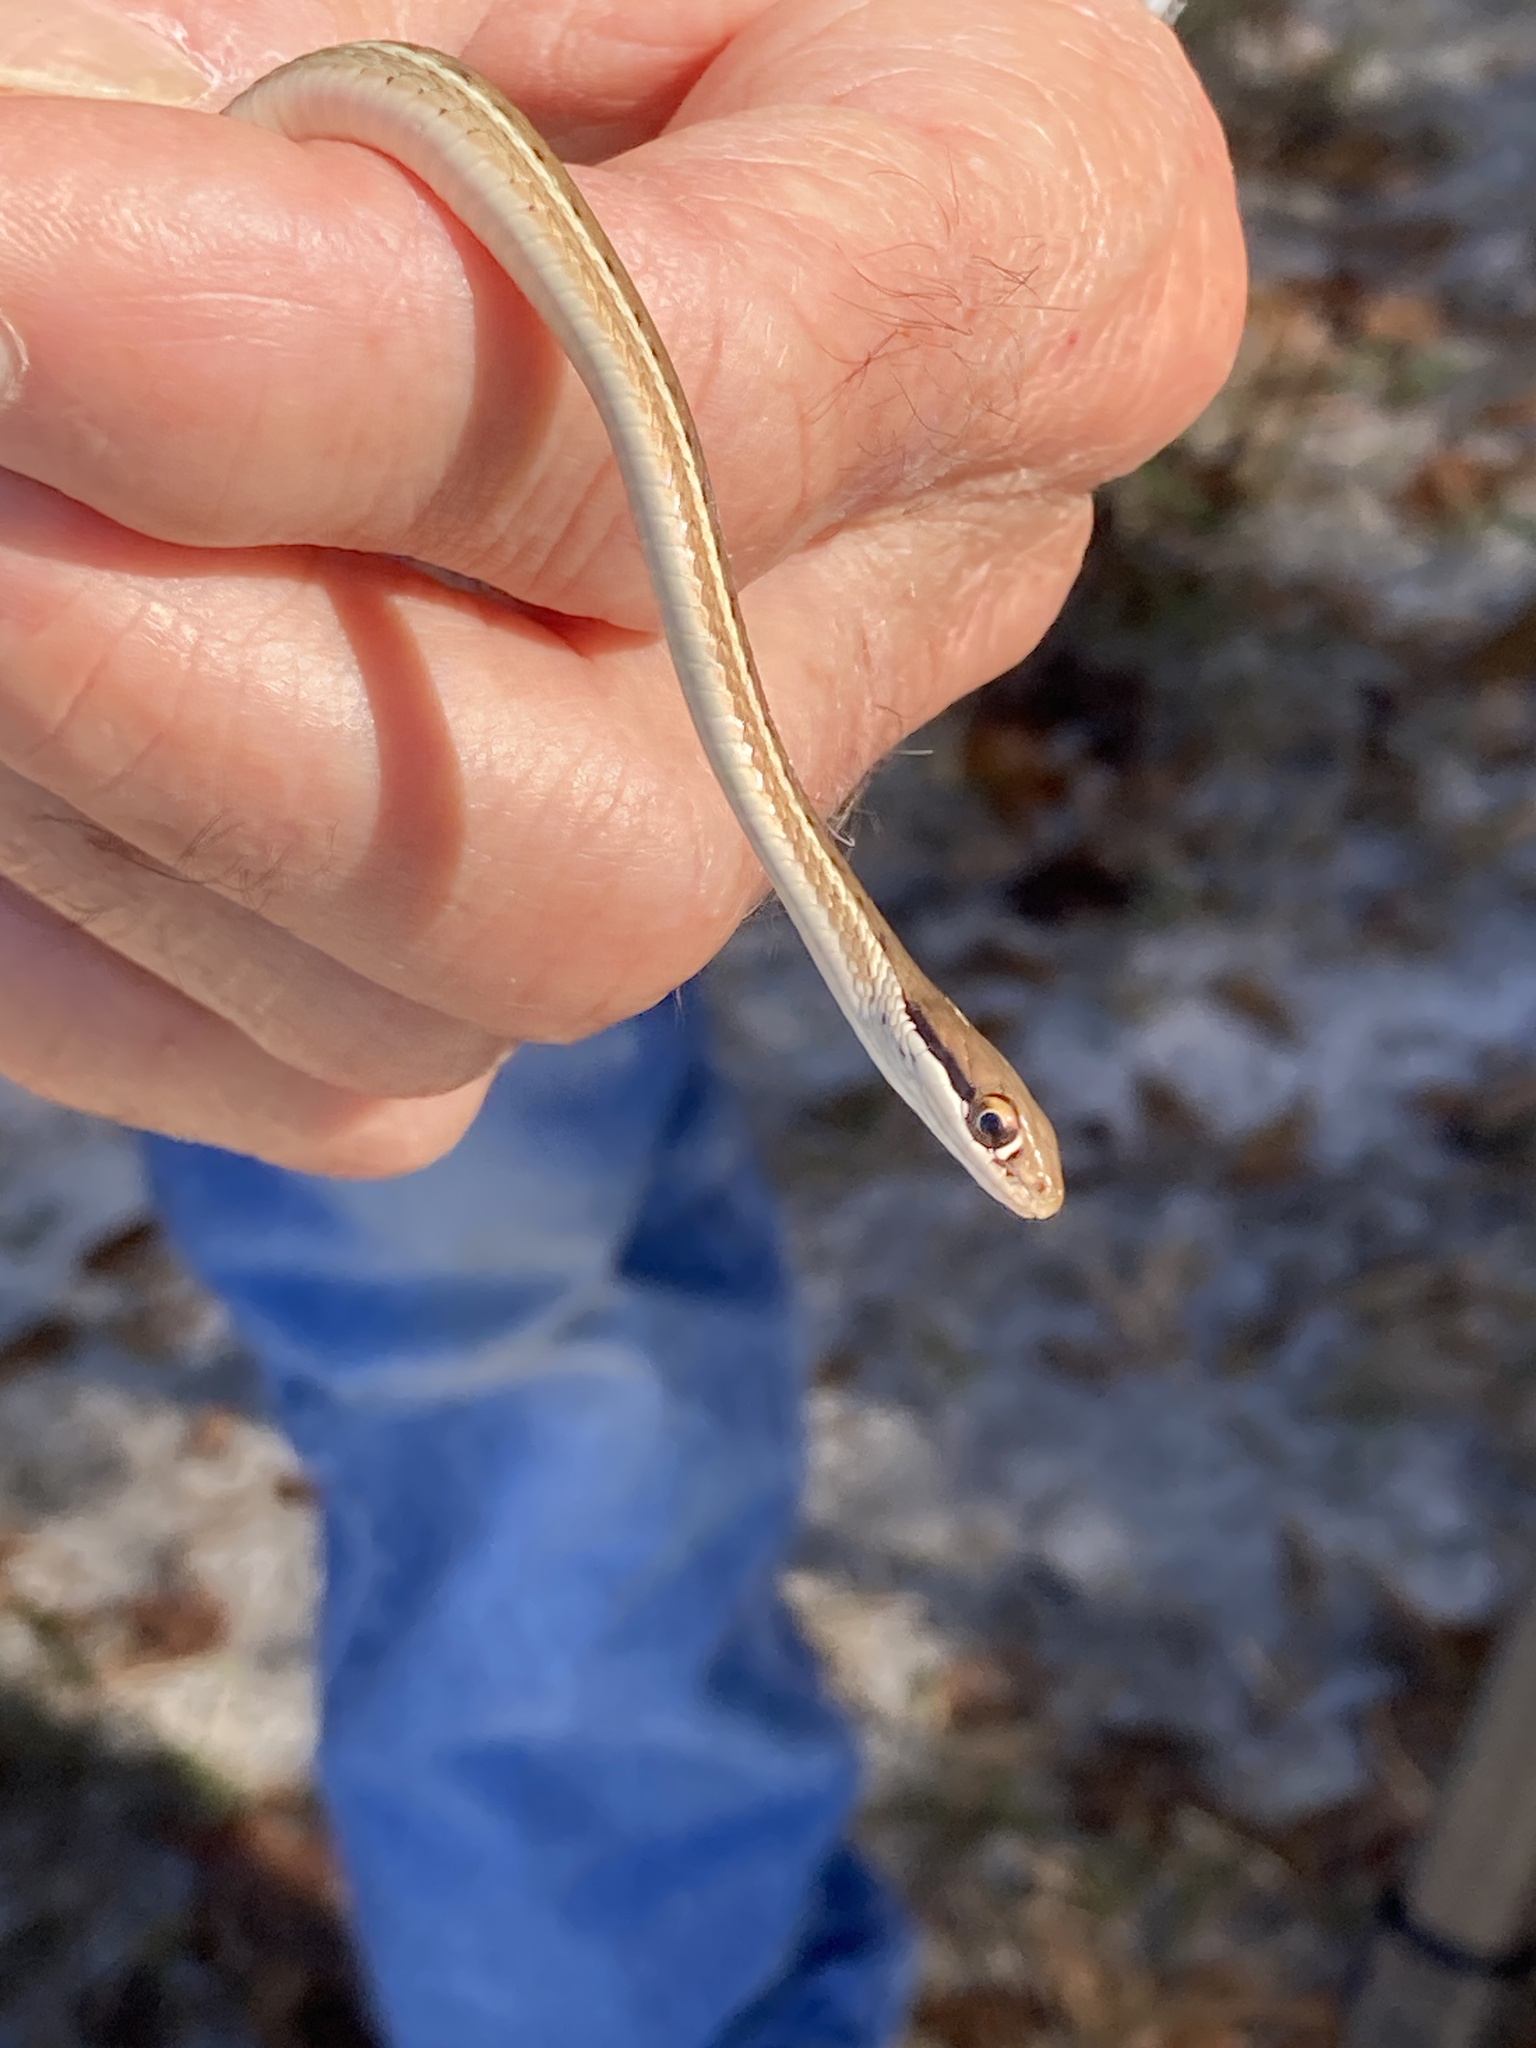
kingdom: Animalia
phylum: Chordata
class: Squamata
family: Colubridae
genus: Thamnophis
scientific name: Thamnophis saurita
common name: Eastern ribbonsnake
